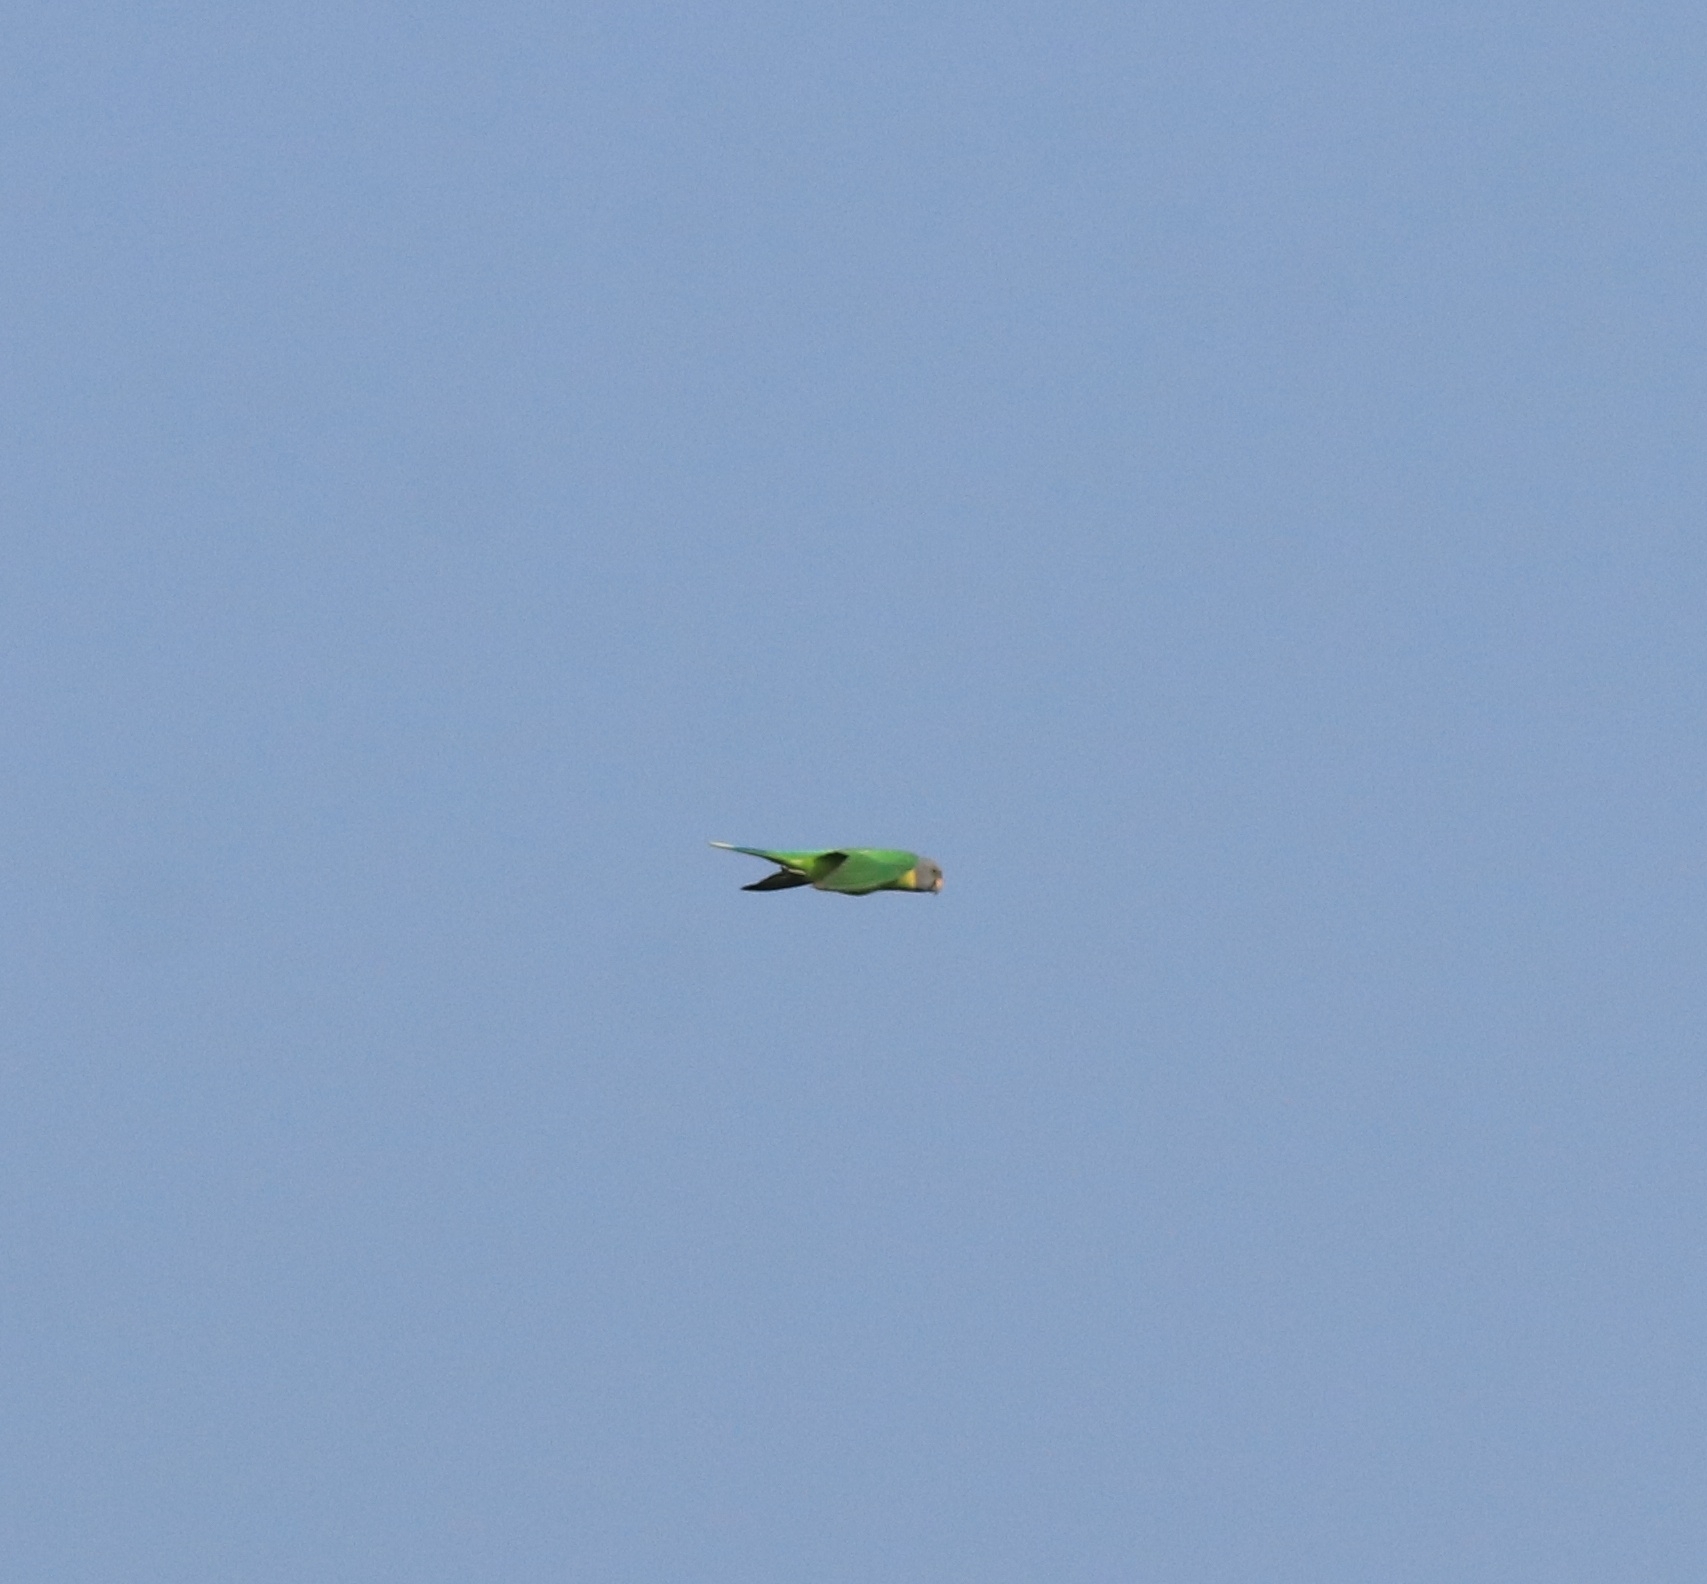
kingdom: Animalia
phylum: Chordata
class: Aves
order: Psittaciformes
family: Psittacidae
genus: Psittacula
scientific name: Psittacula cyanocephala
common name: Plum-headed parakeet
